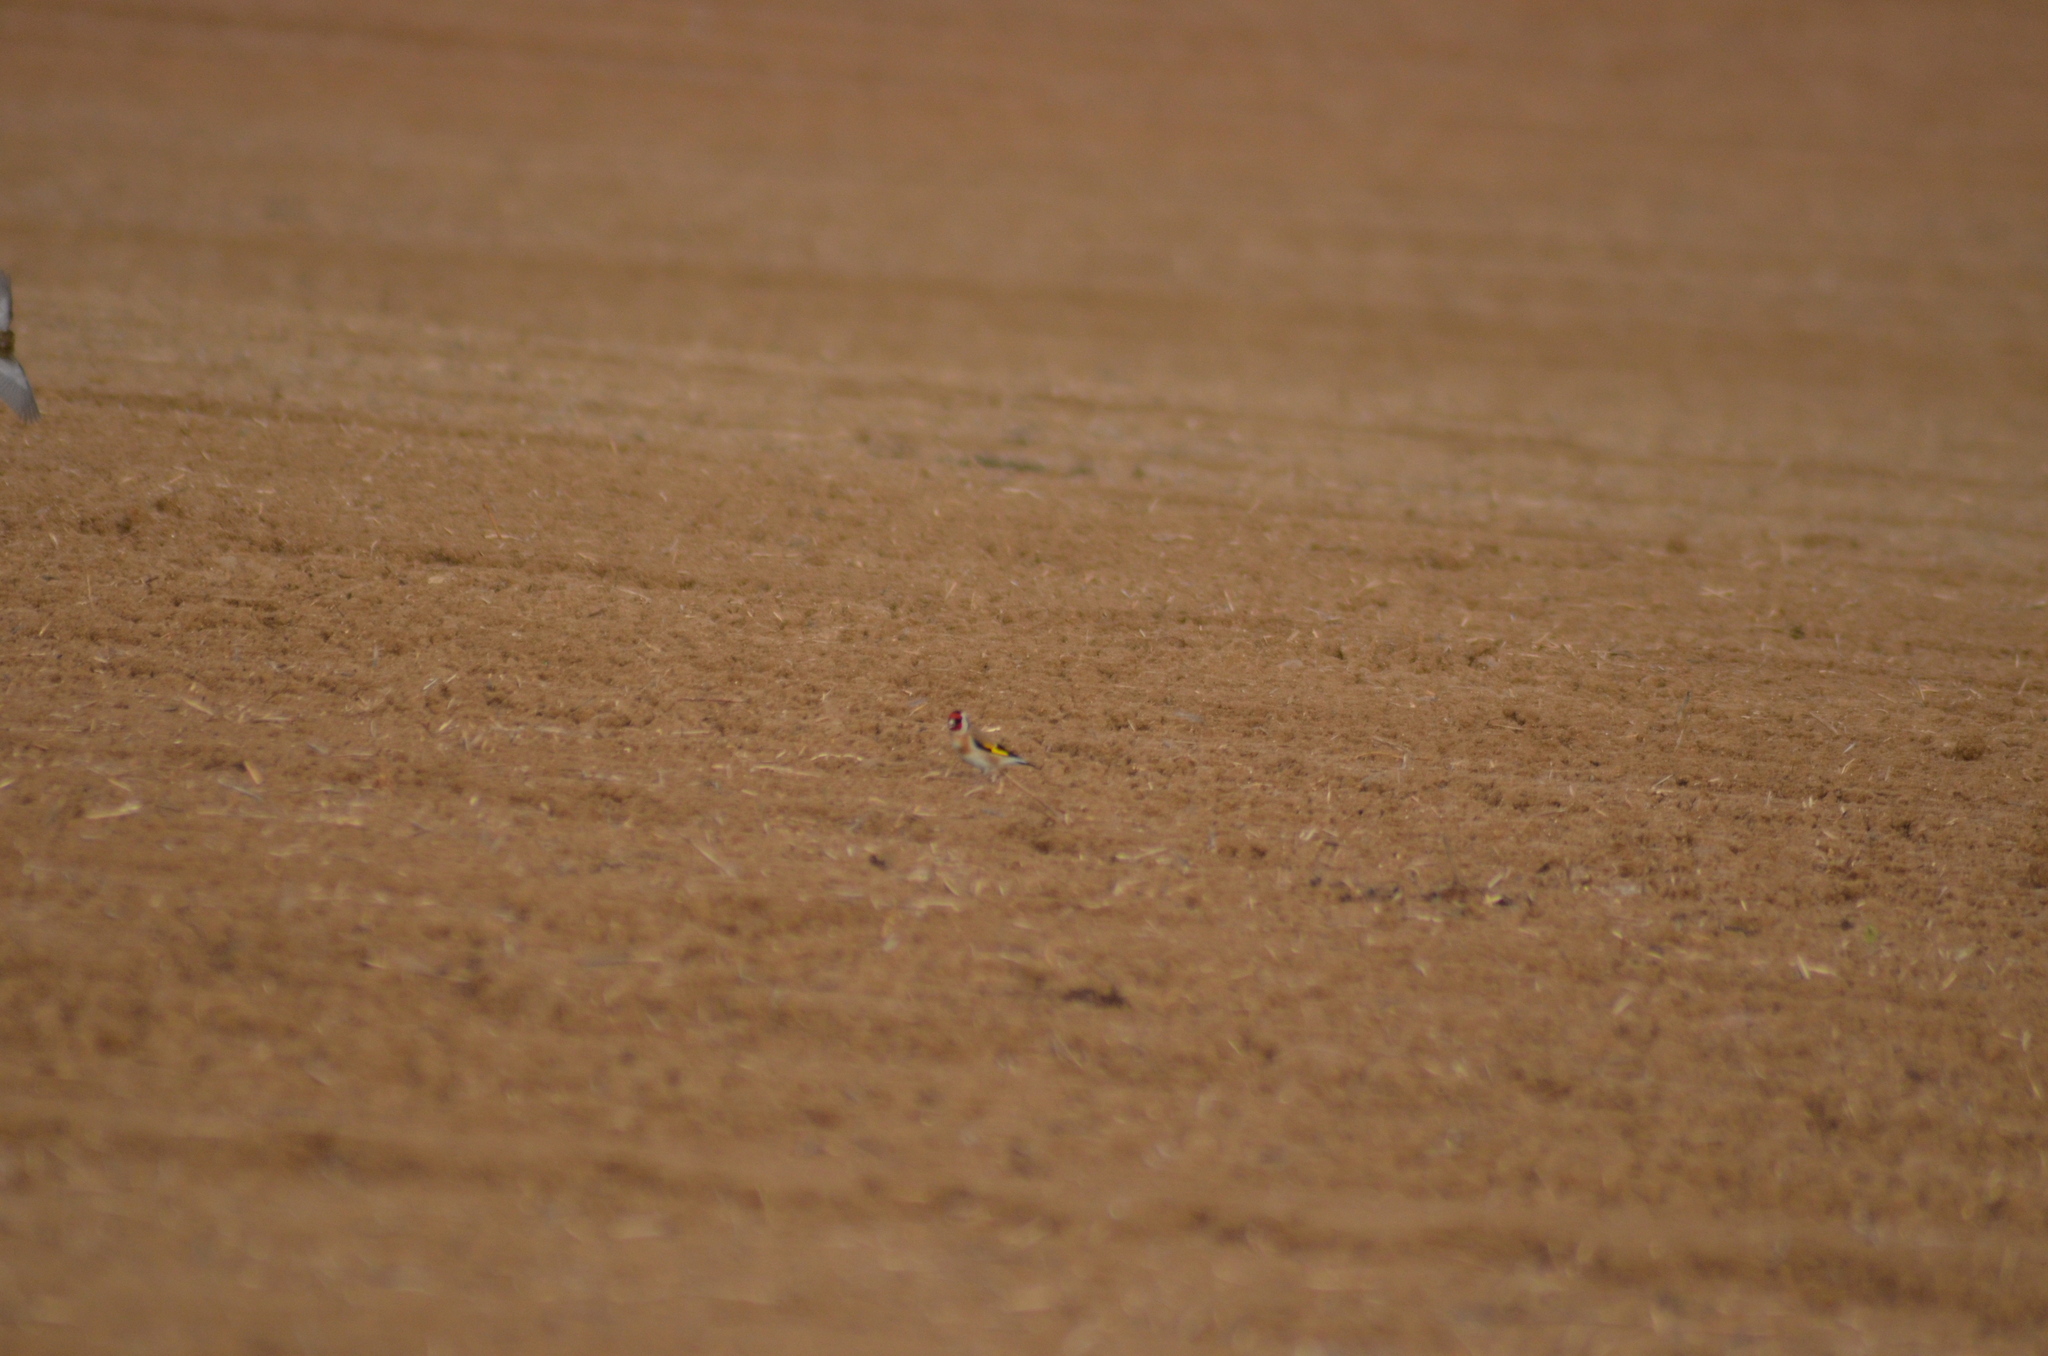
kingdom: Animalia
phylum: Chordata
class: Aves
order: Passeriformes
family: Fringillidae
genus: Carduelis
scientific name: Carduelis carduelis
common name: European goldfinch
